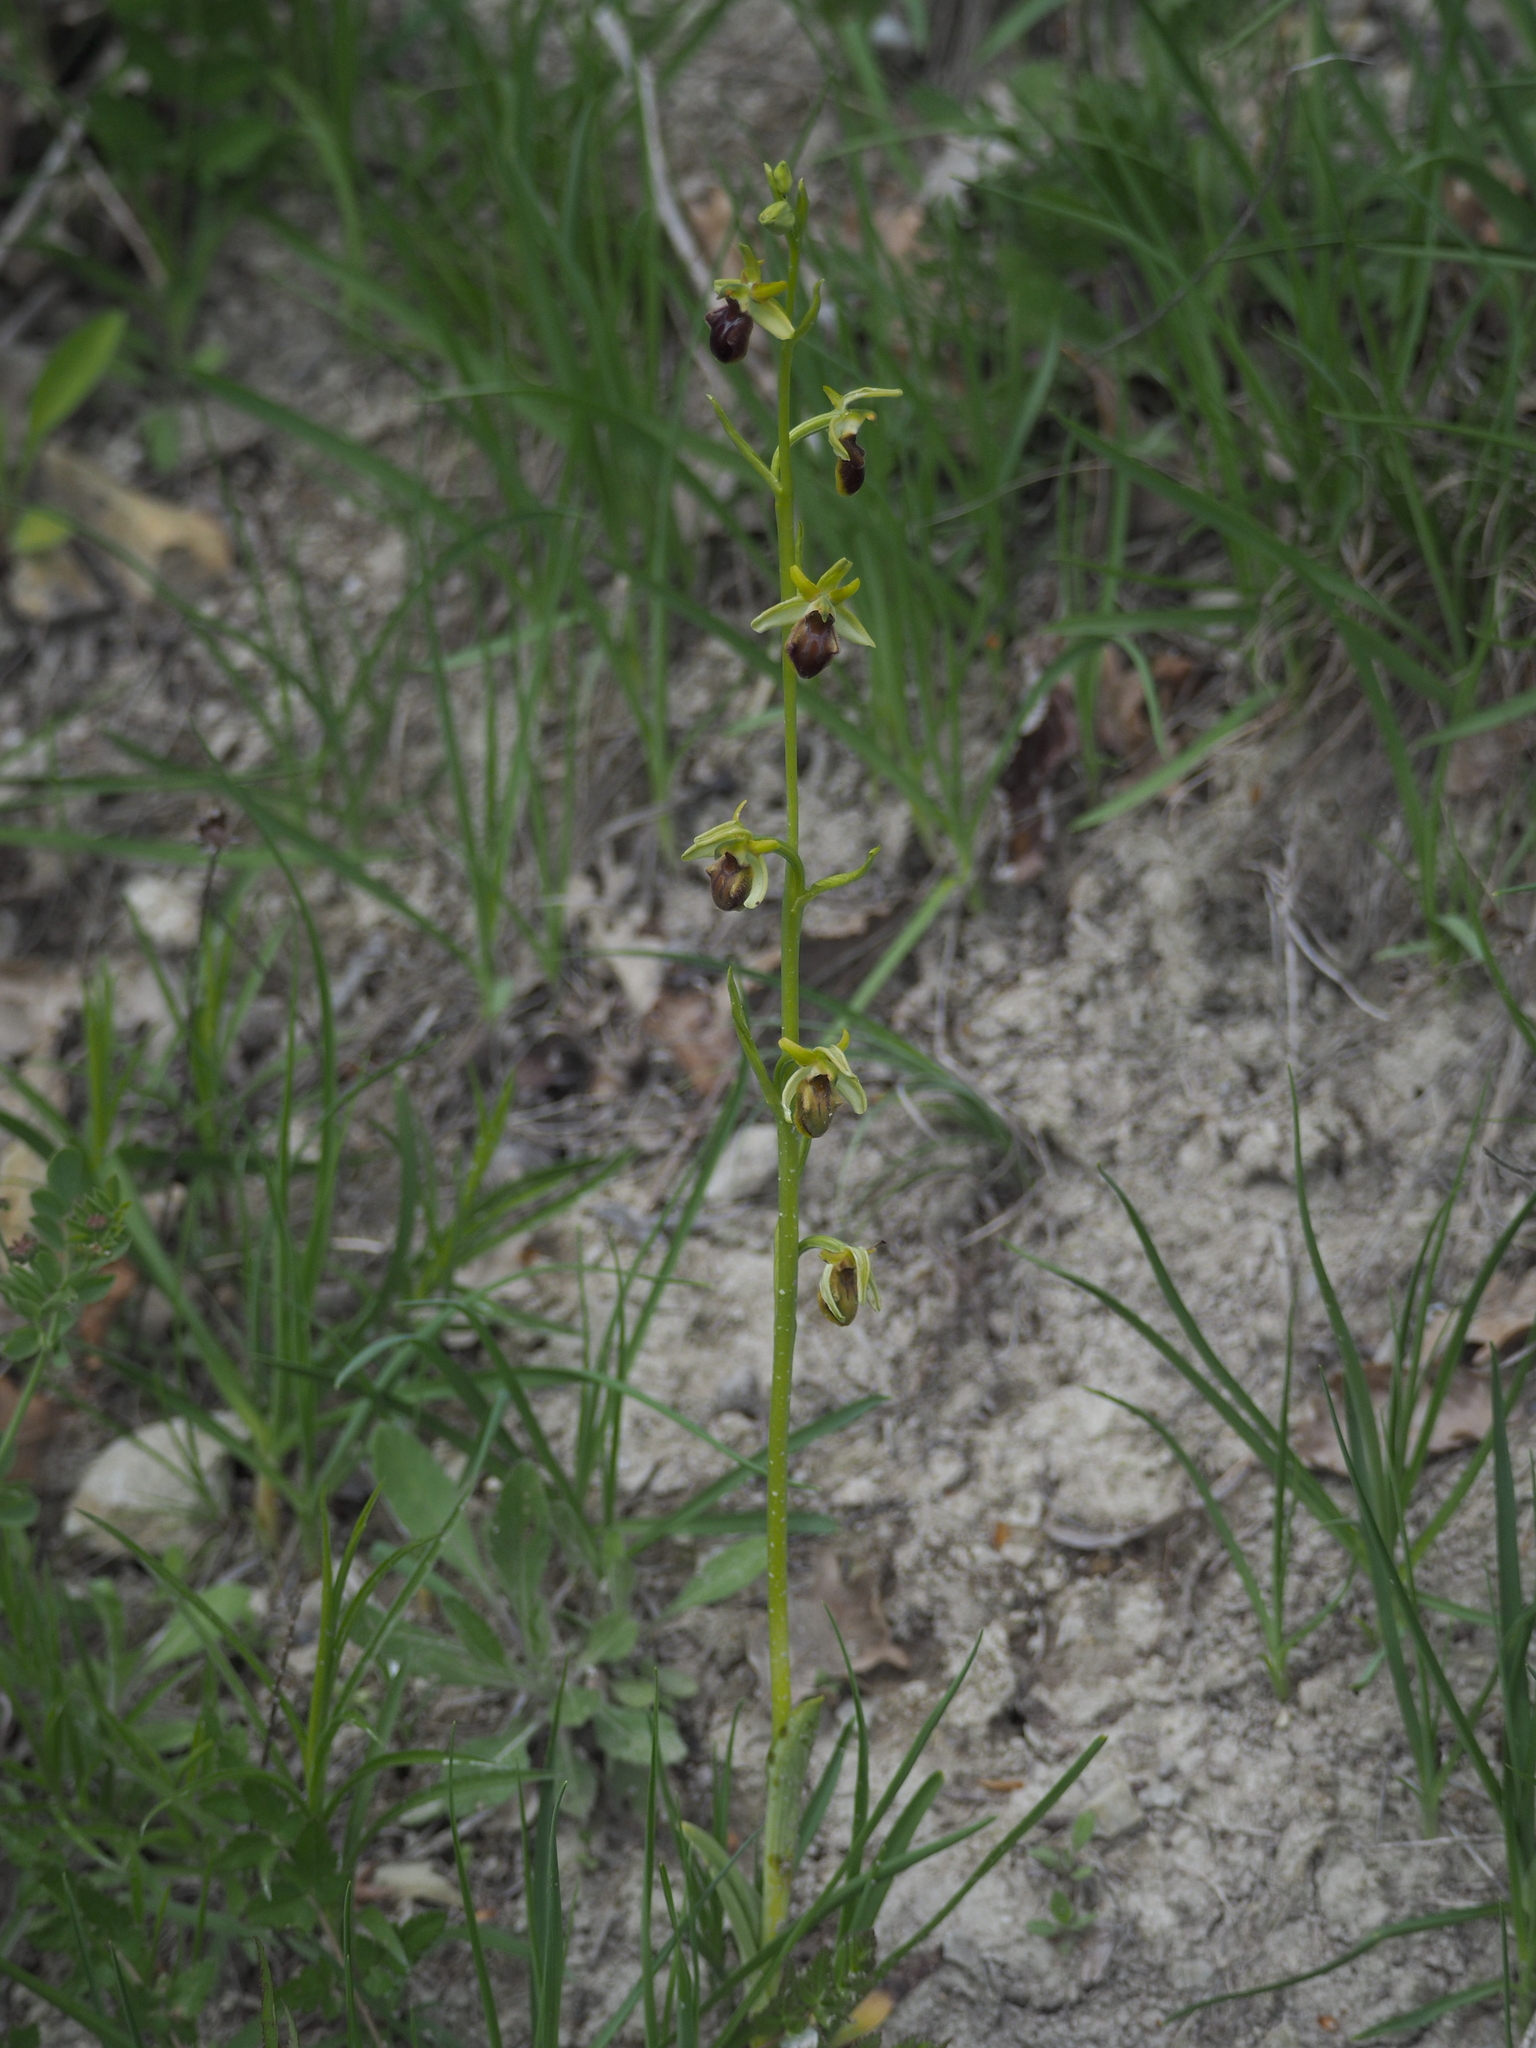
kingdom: Plantae
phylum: Tracheophyta
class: Liliopsida
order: Asparagales
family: Orchidaceae
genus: Ophrys
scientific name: Ophrys sphegodes
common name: Early spider-orchid
